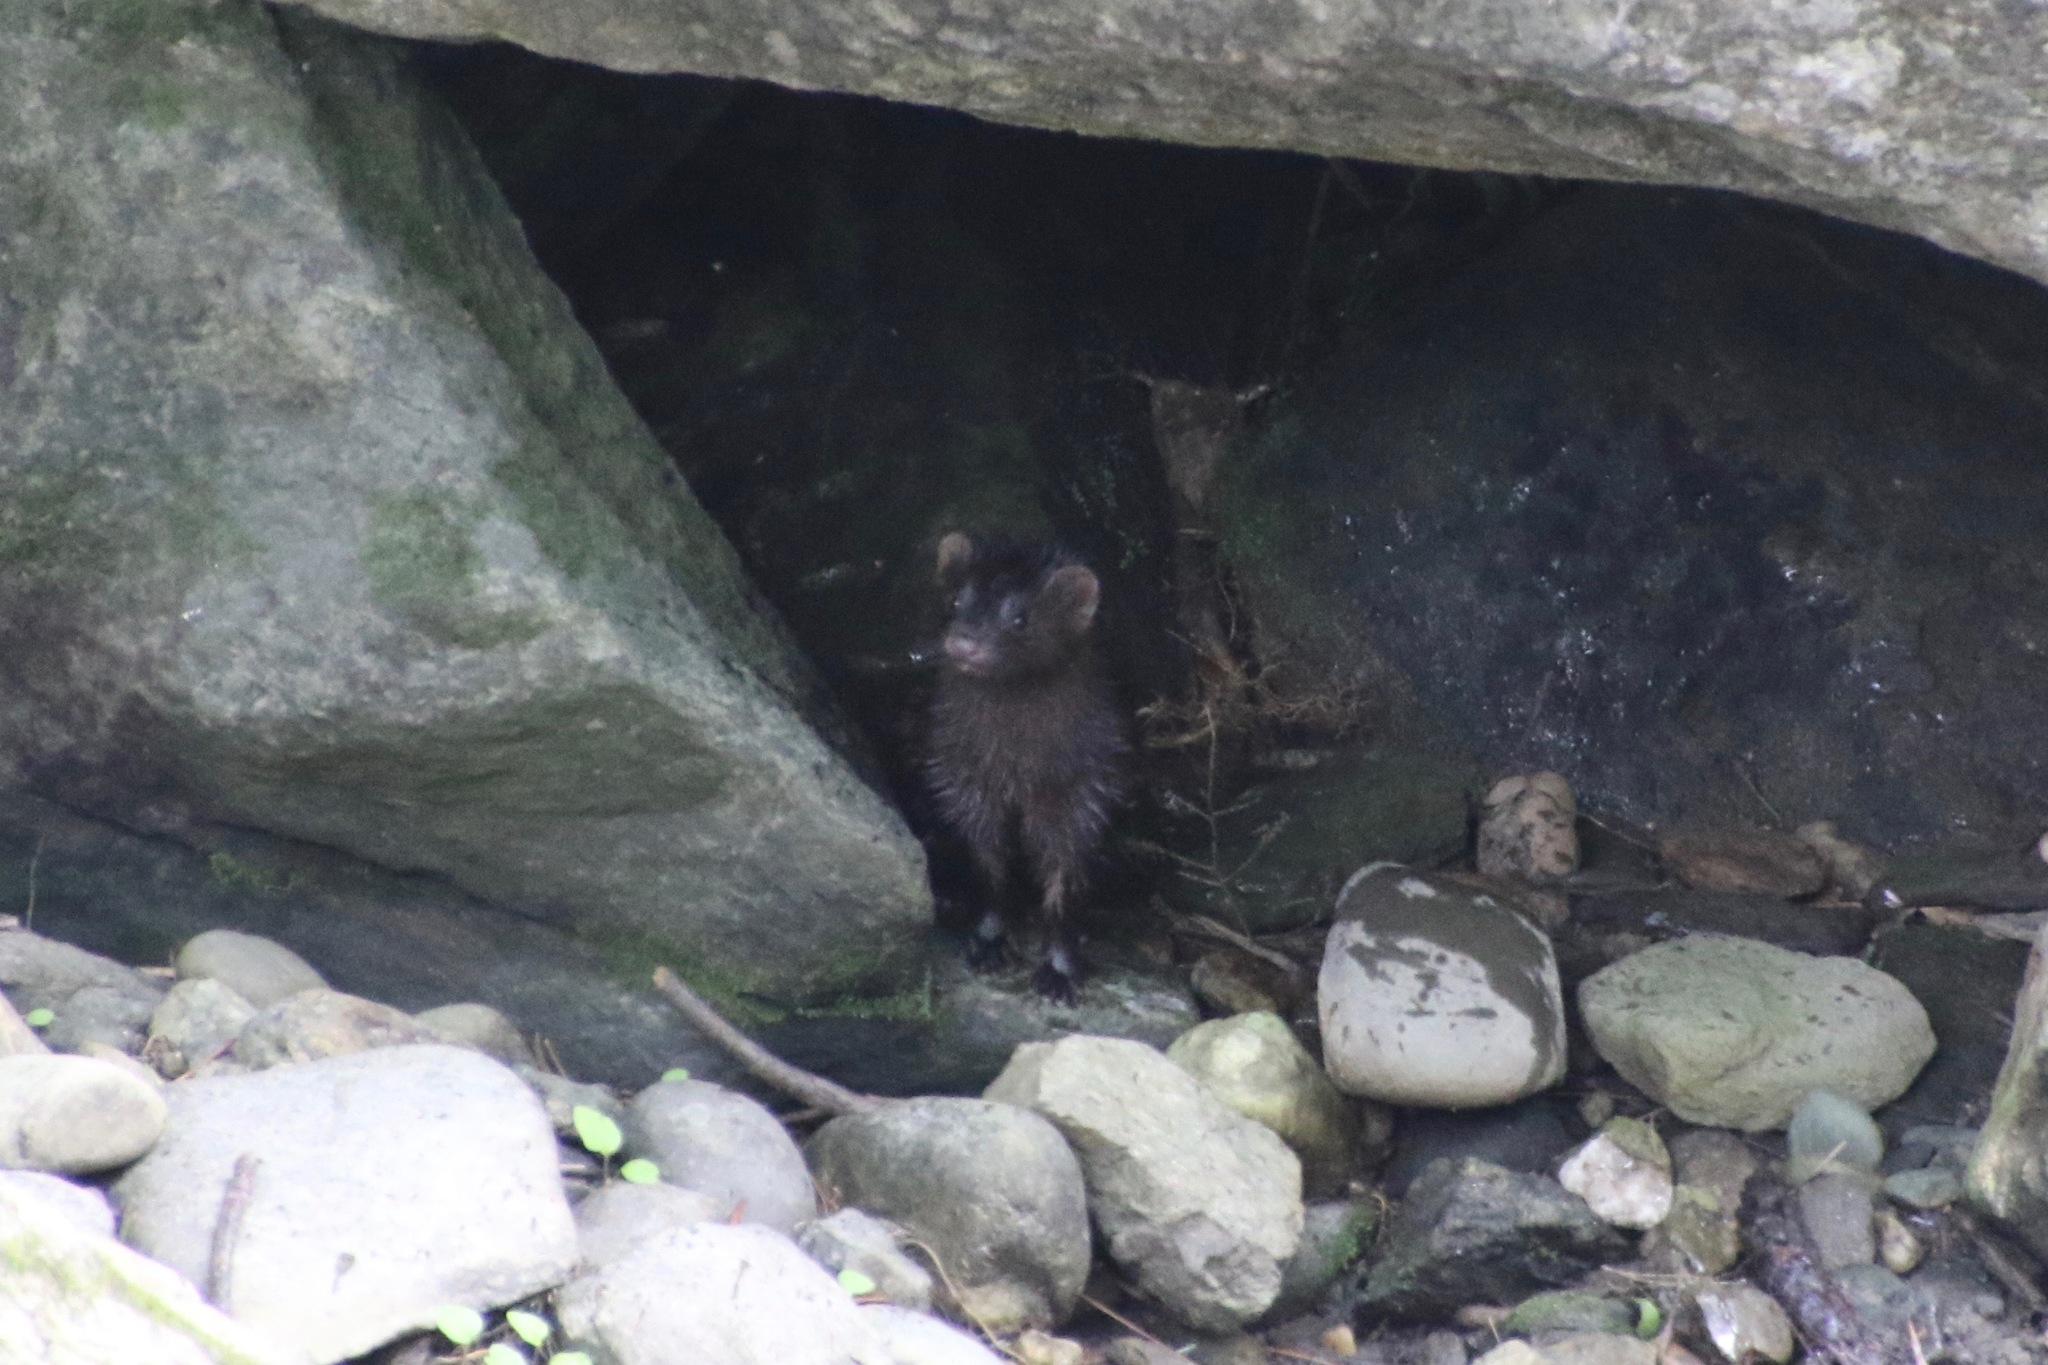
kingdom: Animalia
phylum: Chordata
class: Mammalia
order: Carnivora
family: Mustelidae
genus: Mustela
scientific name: Mustela
